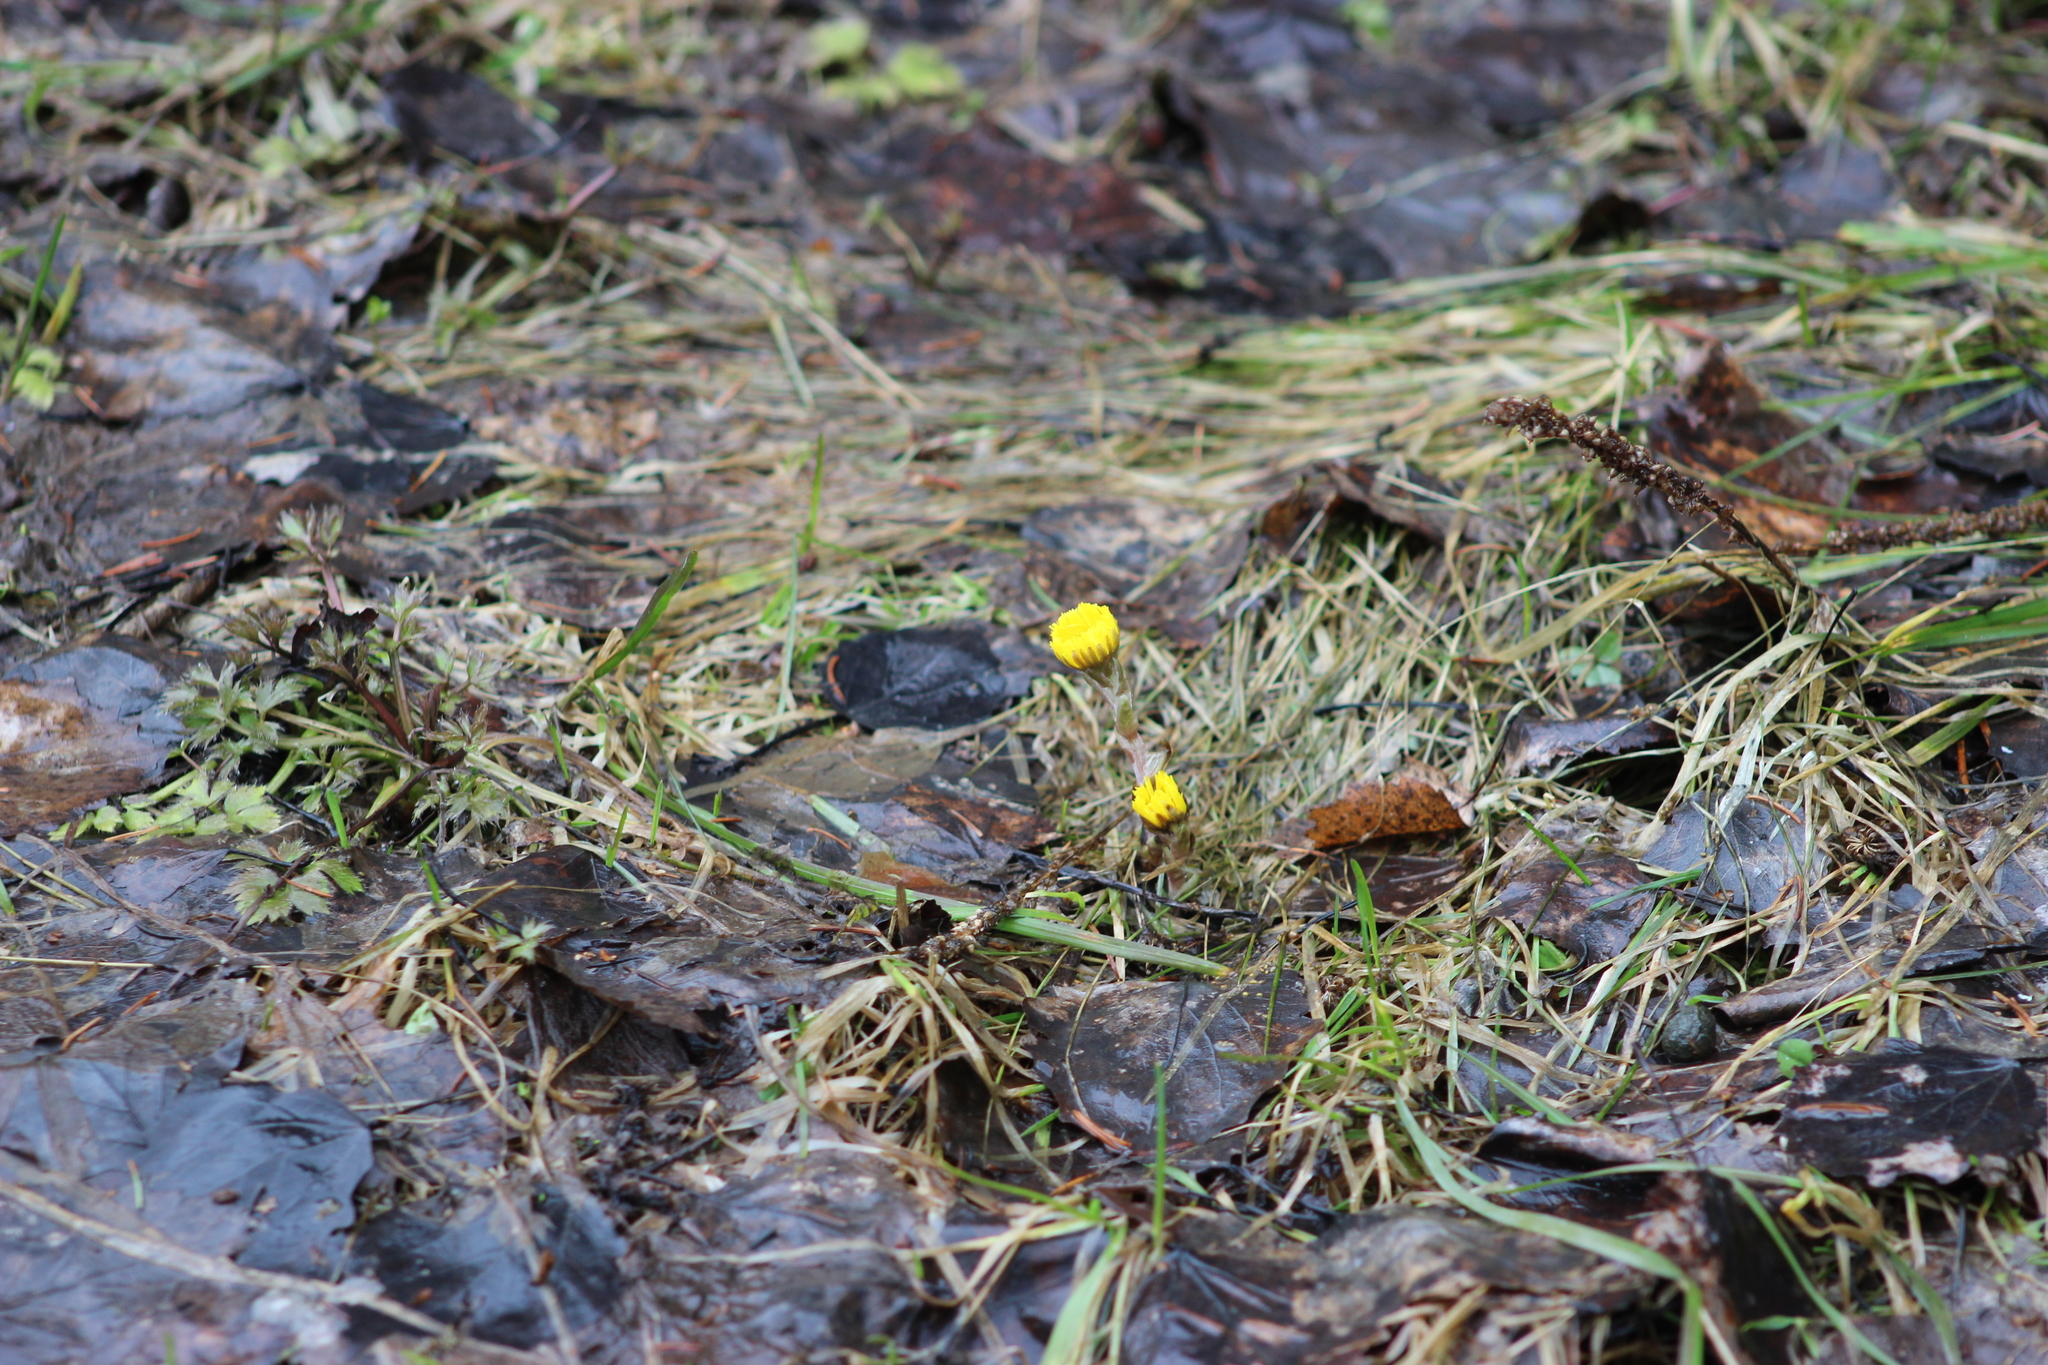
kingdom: Plantae
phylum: Tracheophyta
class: Magnoliopsida
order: Asterales
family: Asteraceae
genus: Tussilago
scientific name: Tussilago farfara
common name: Coltsfoot
